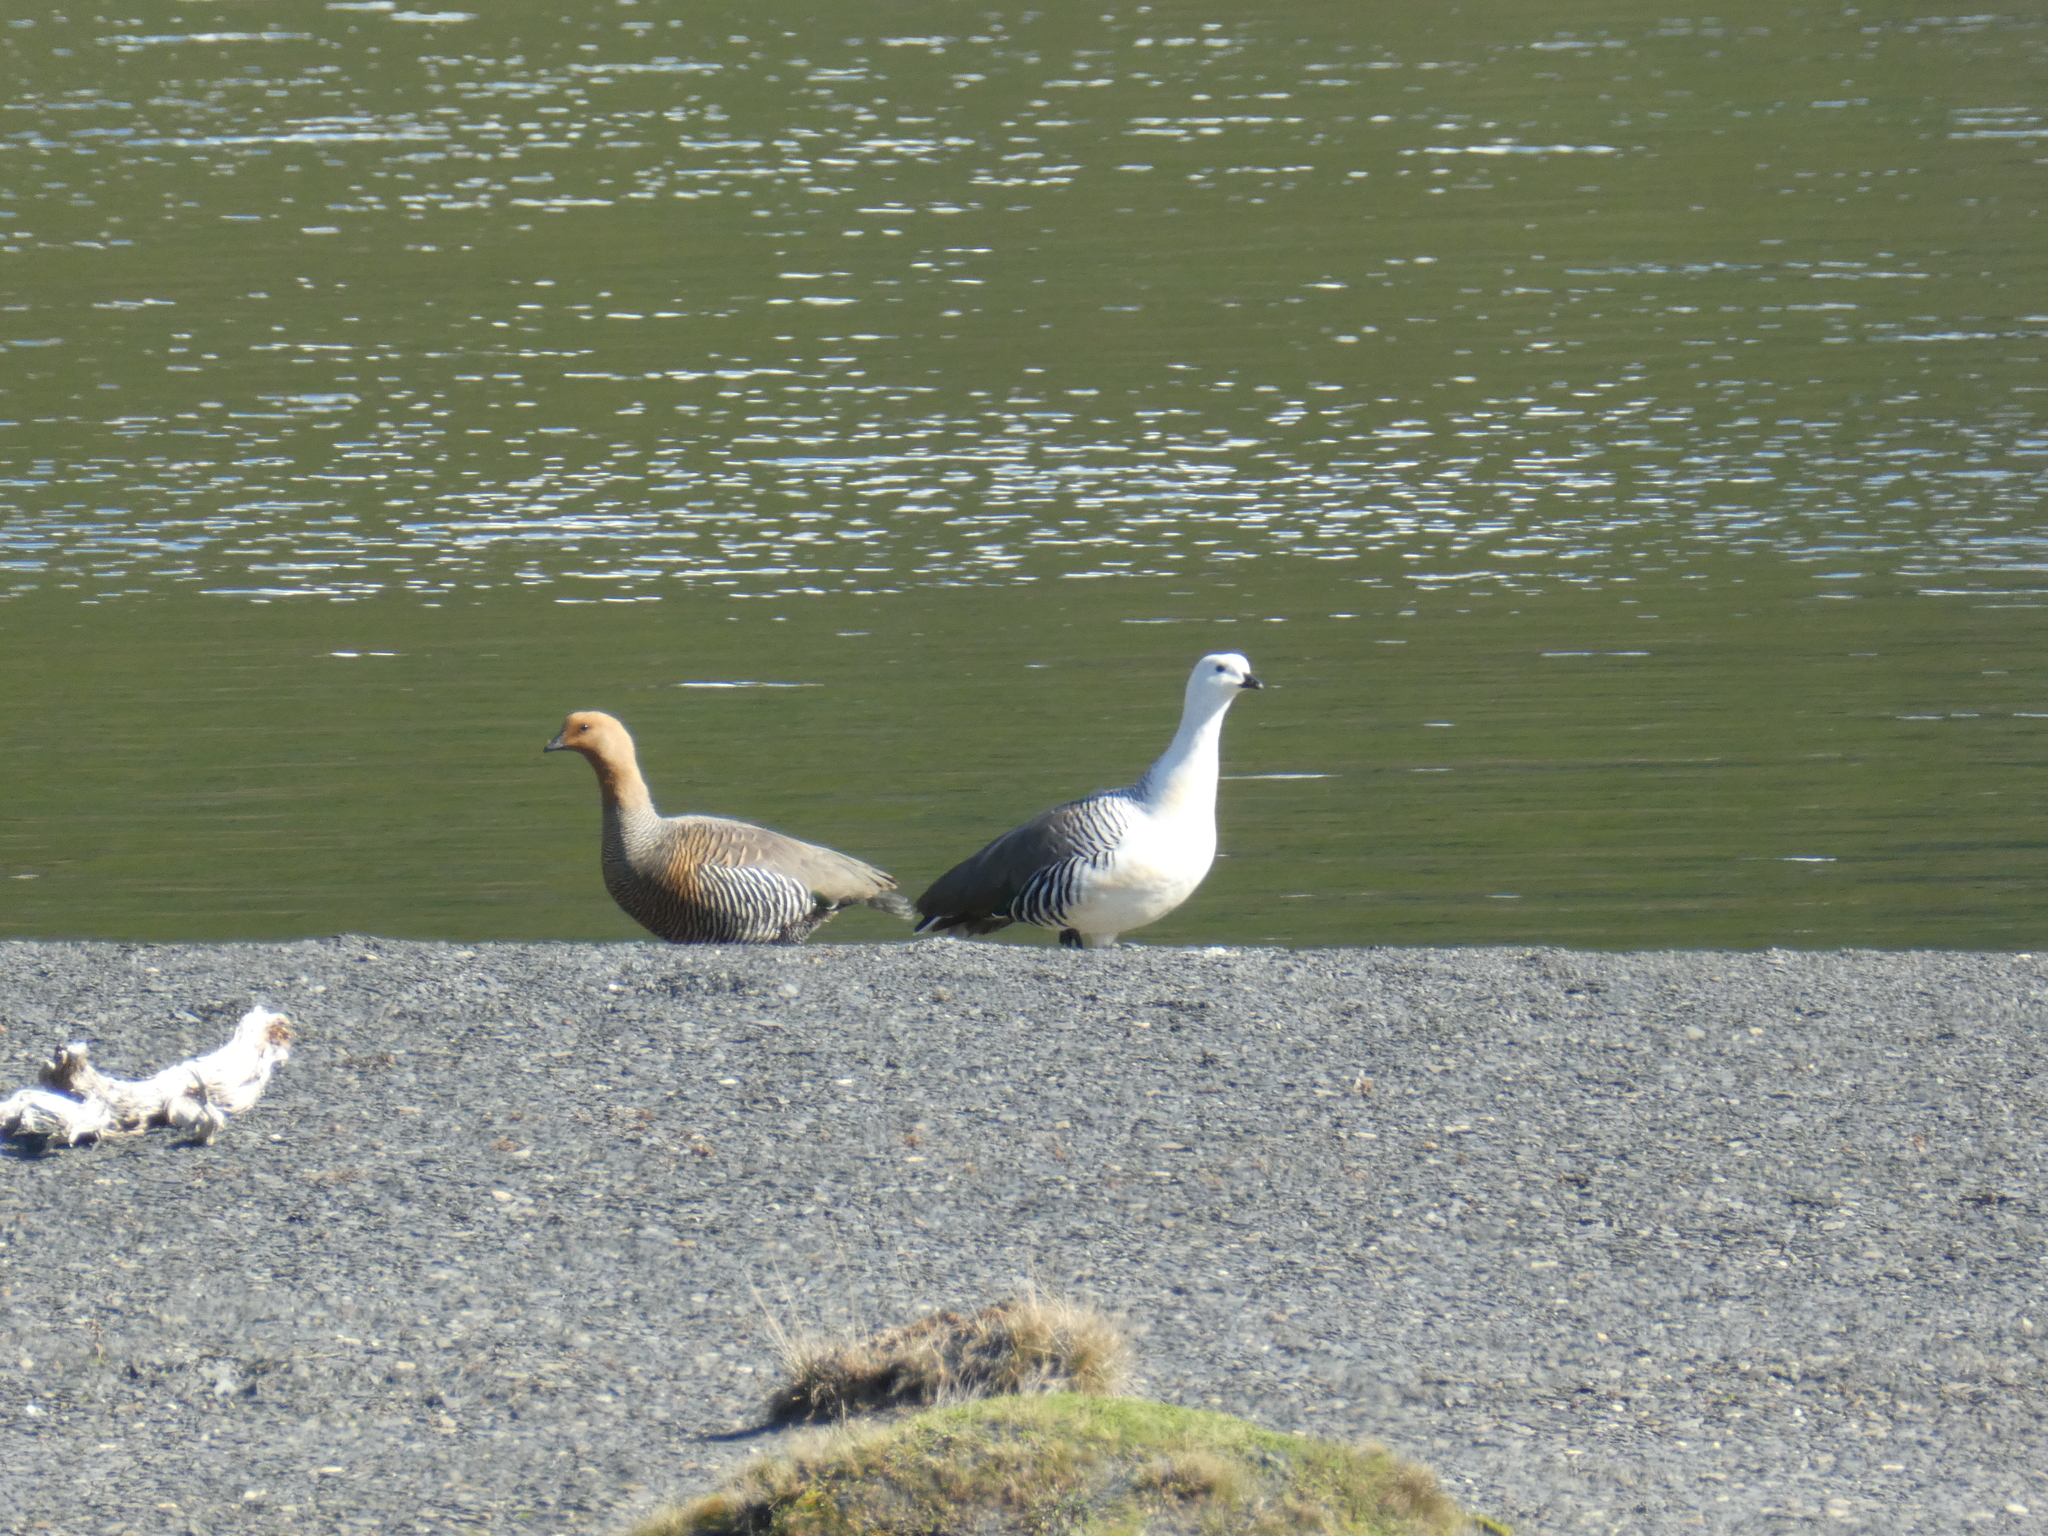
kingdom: Animalia
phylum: Chordata
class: Aves
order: Anseriformes
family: Anatidae
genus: Chloephaga
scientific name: Chloephaga picta
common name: Upland goose
